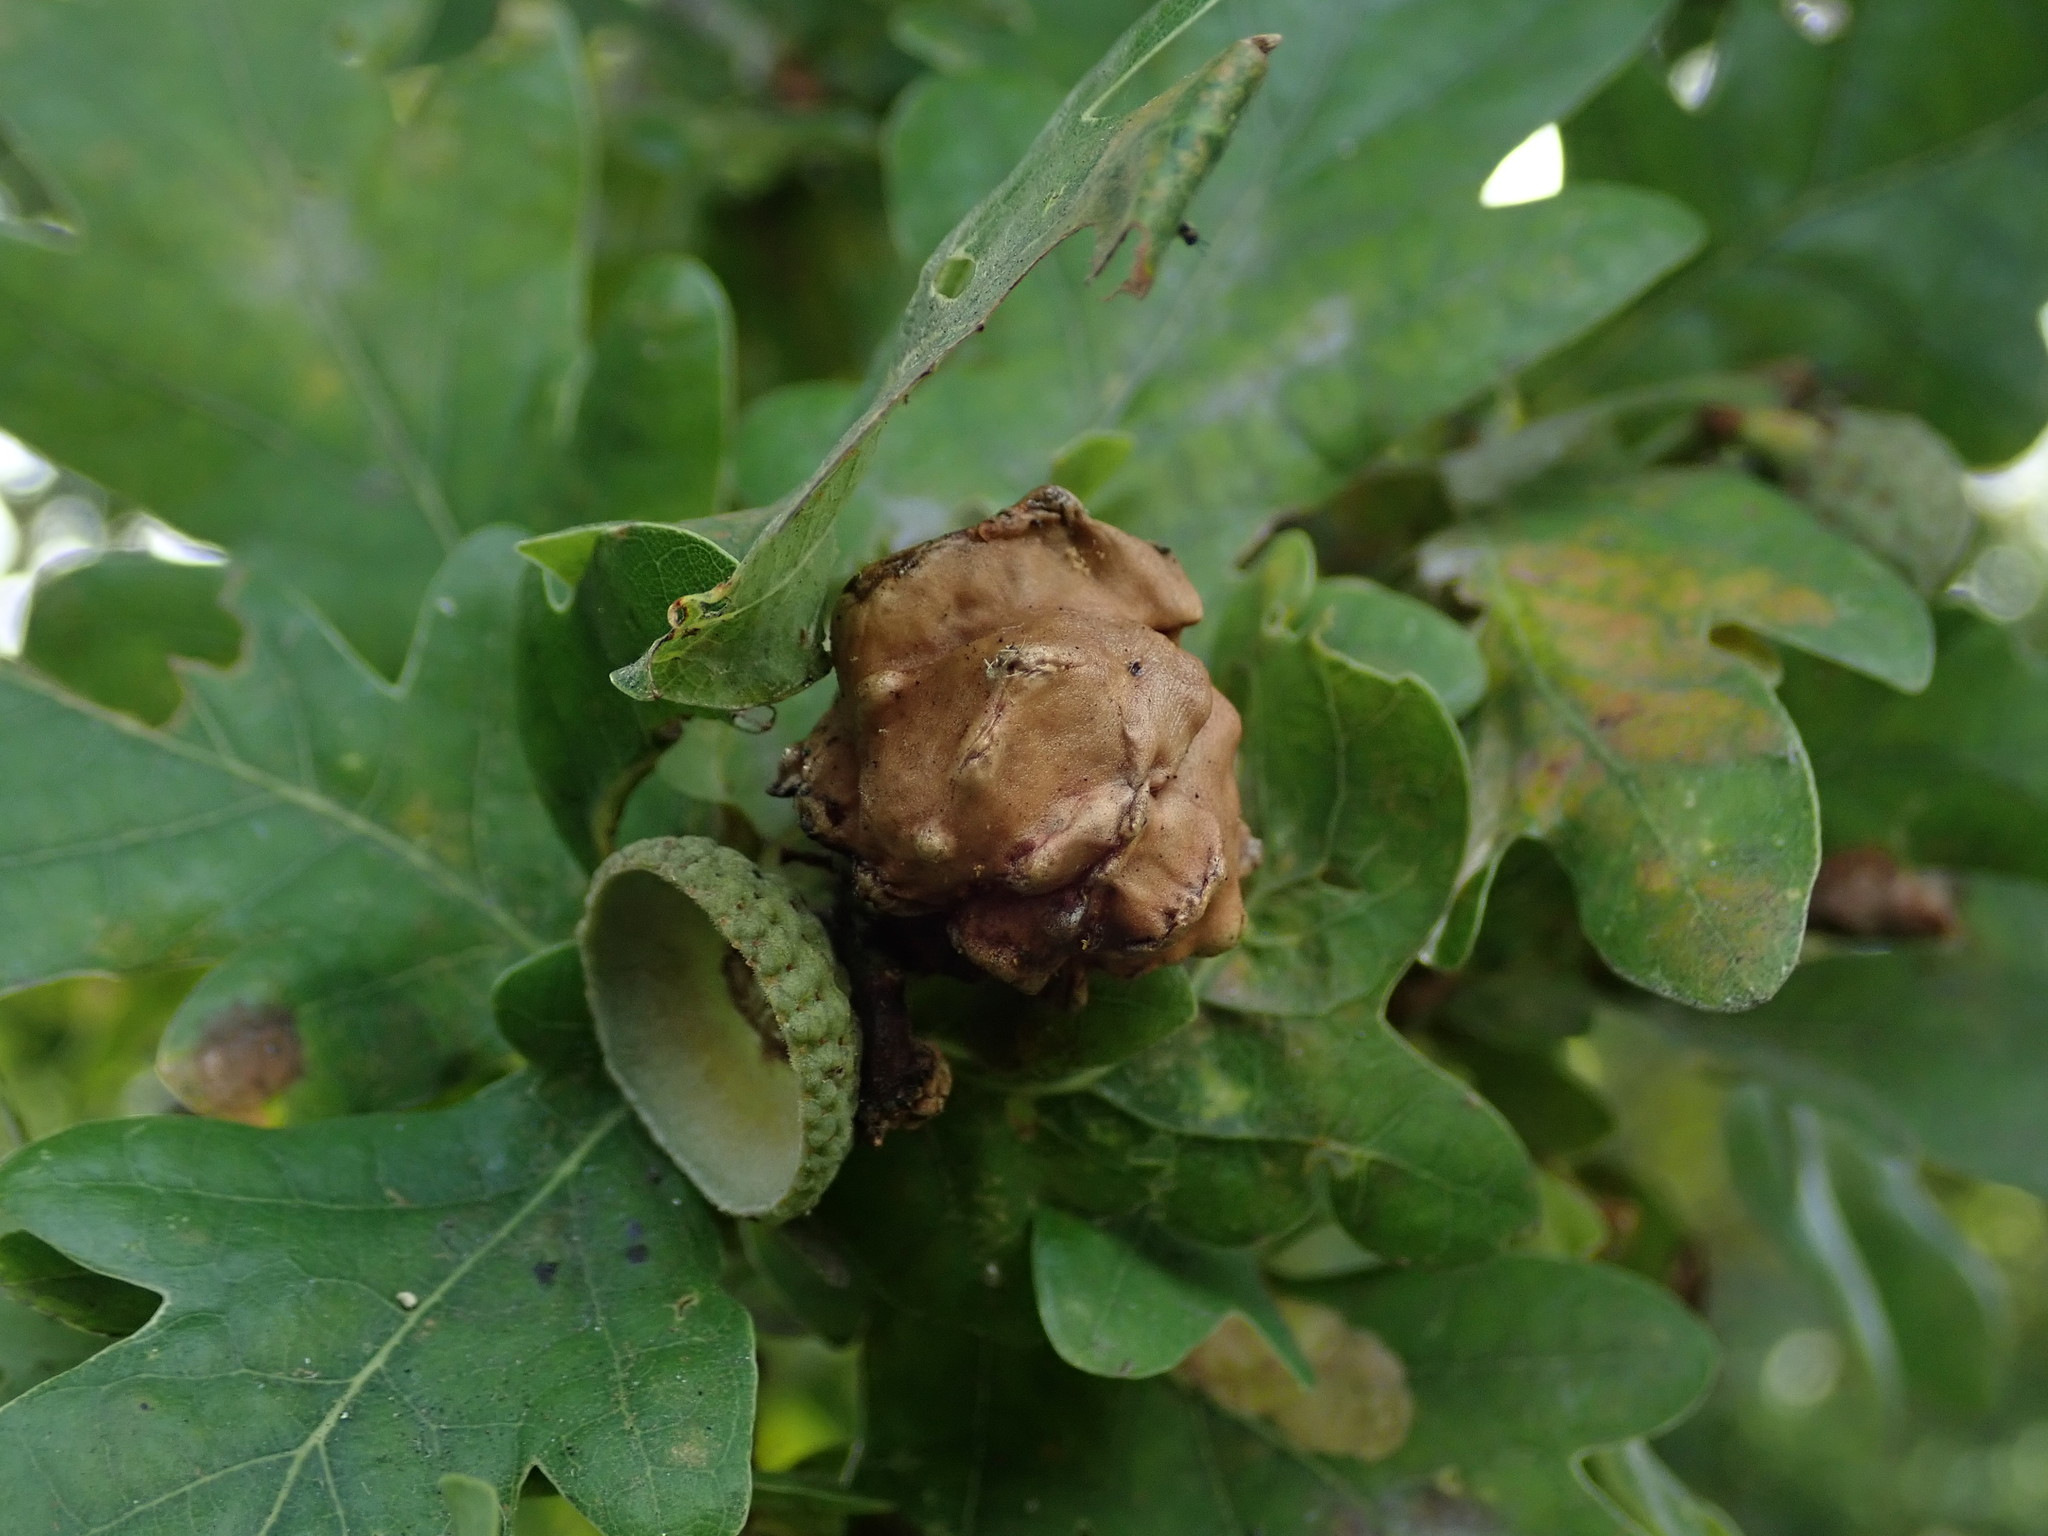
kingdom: Animalia
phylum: Arthropoda
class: Insecta
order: Hymenoptera
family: Cynipidae
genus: Andricus
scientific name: Andricus quercuscalicis
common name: Knopper gall
